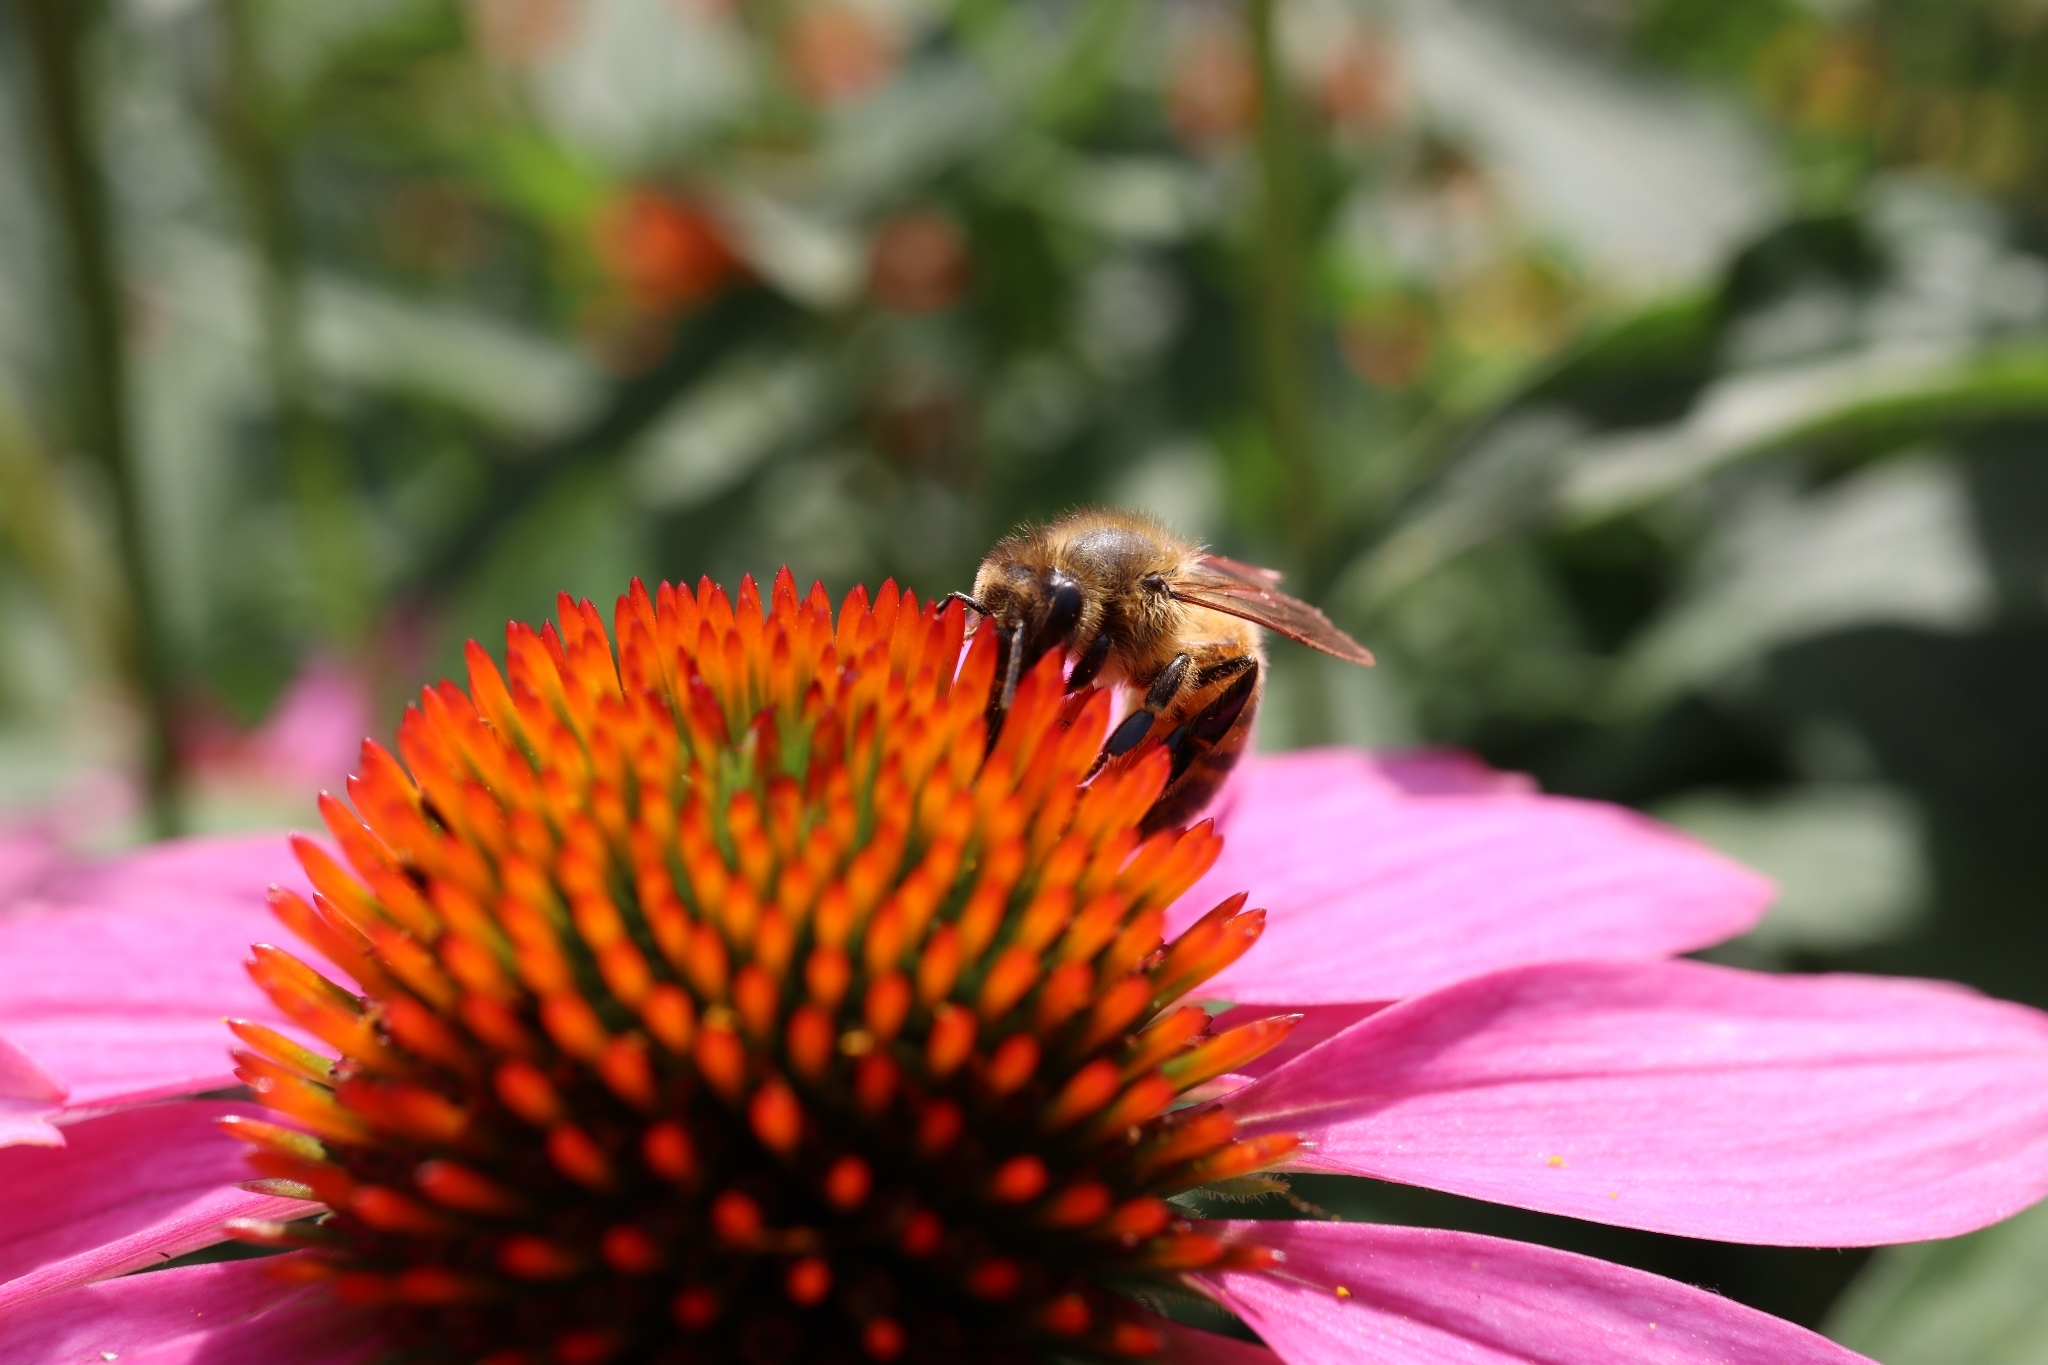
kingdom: Animalia
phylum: Arthropoda
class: Insecta
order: Hymenoptera
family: Apidae
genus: Apis
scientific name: Apis mellifera
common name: Honey bee
